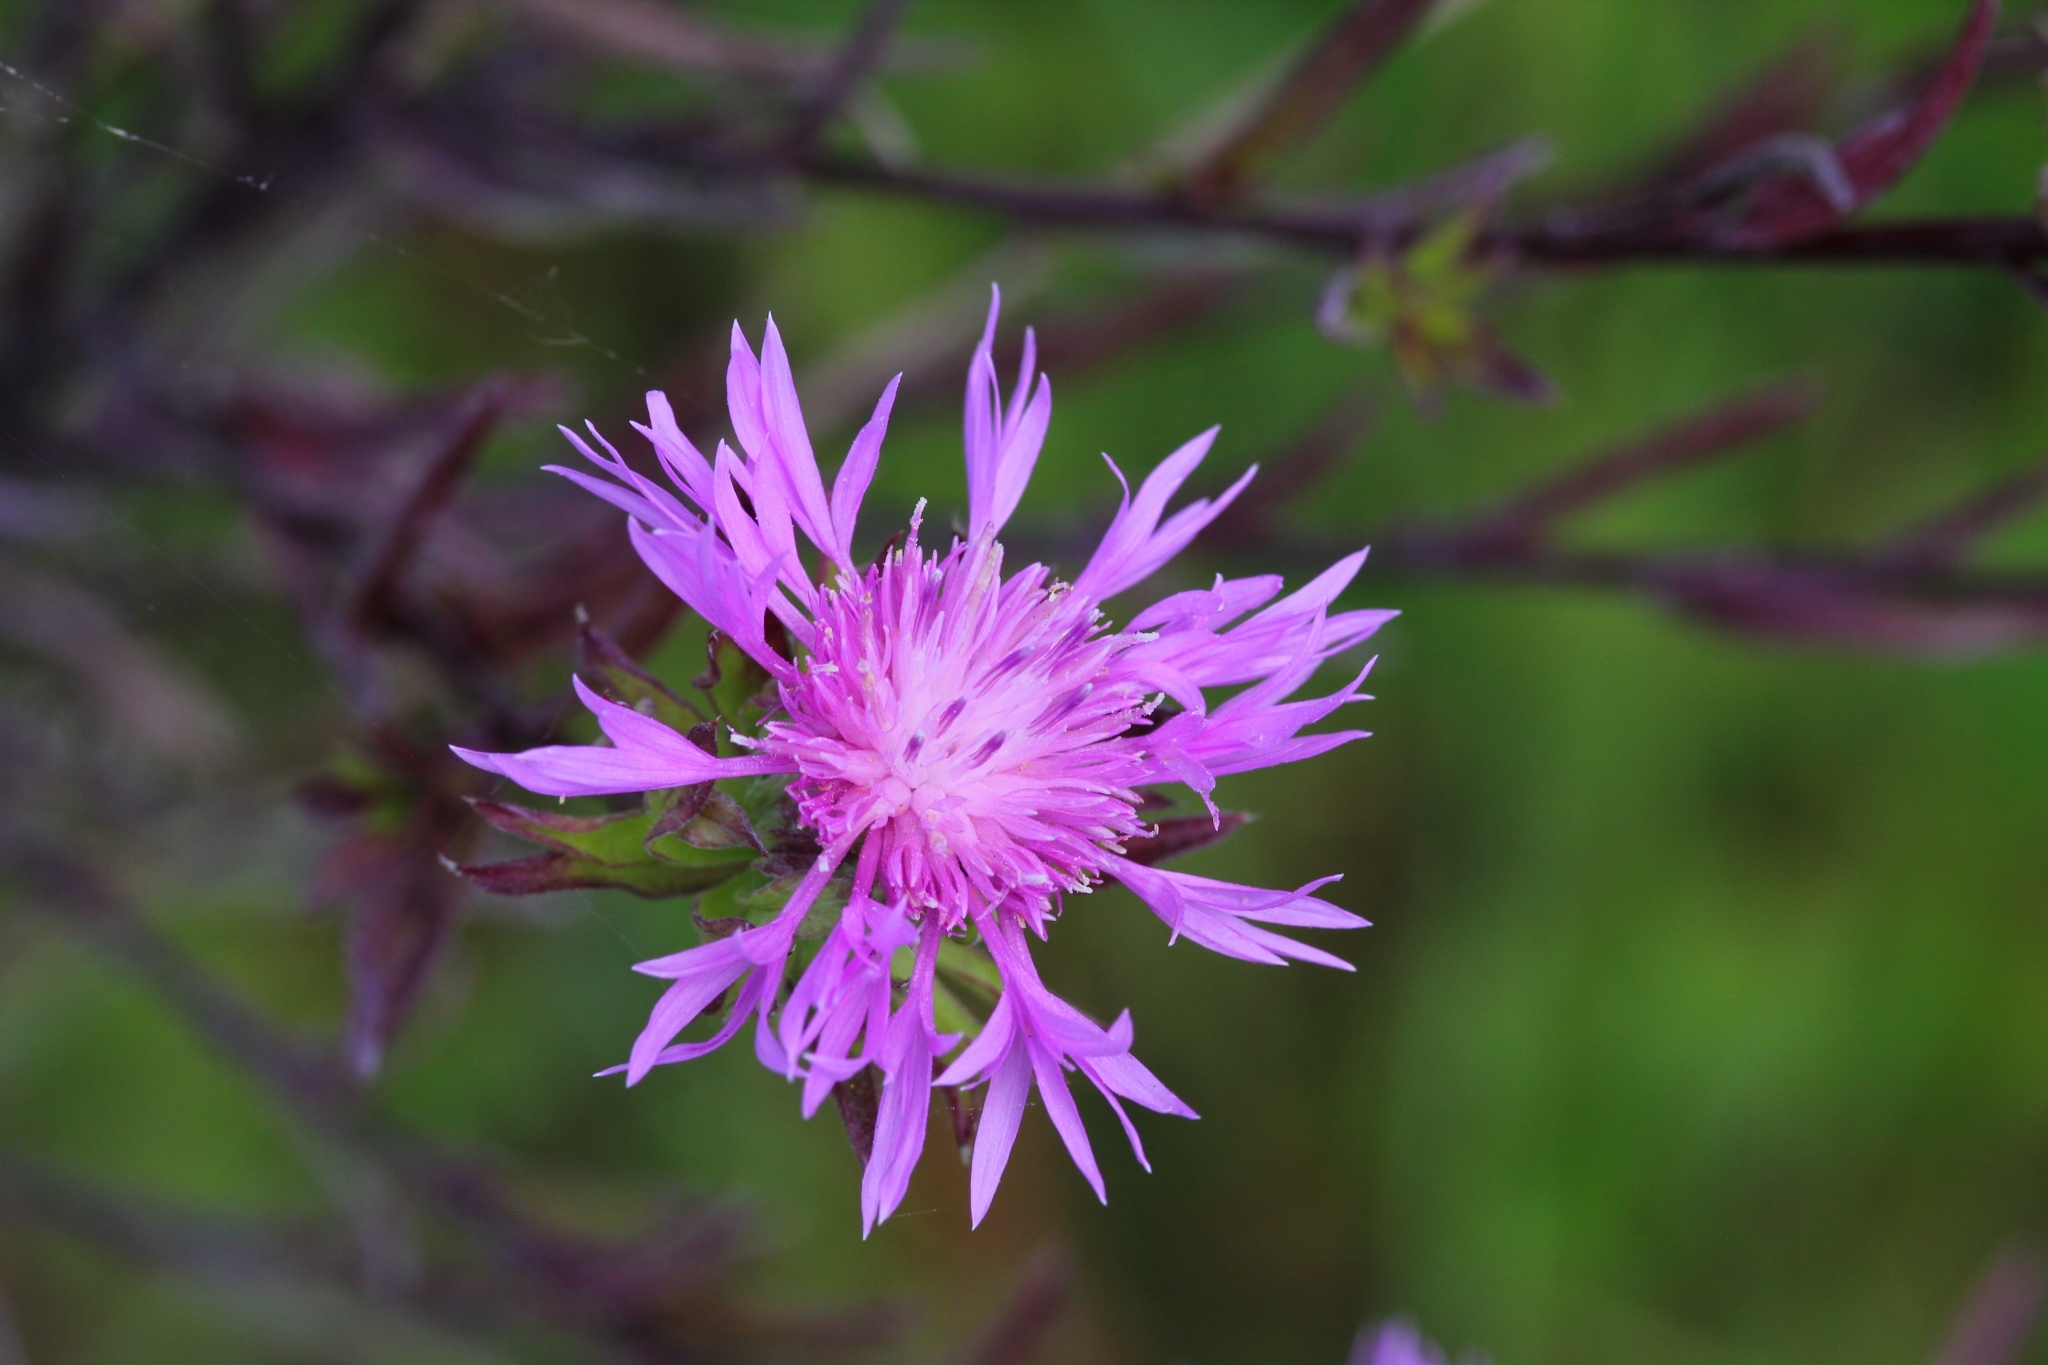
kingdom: Plantae
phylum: Tracheophyta
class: Magnoliopsida
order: Asterales
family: Asteraceae
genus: Centaurea
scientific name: Centaurea stoebe
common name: Spotted knapweed
